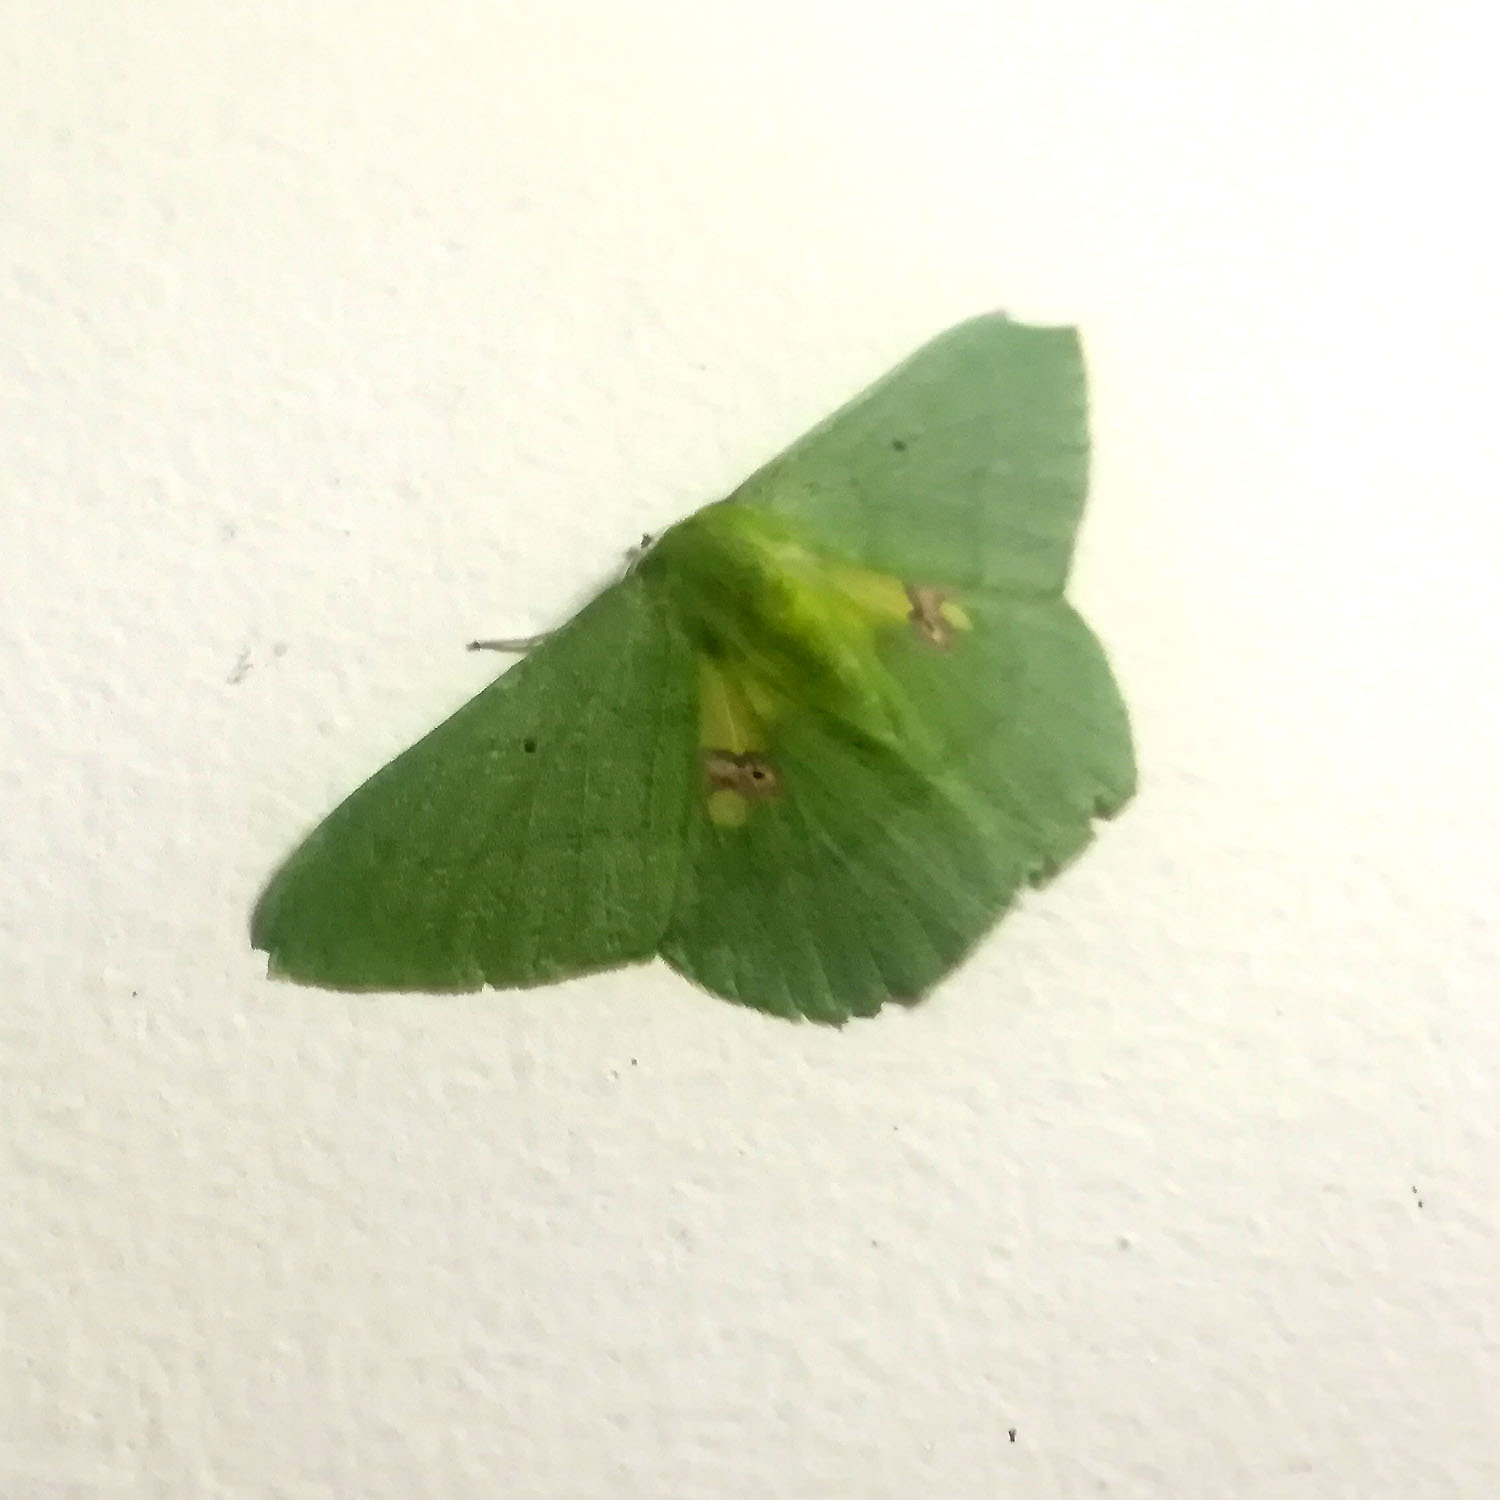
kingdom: Animalia
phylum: Arthropoda
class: Insecta
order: Lepidoptera
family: Geometridae
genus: Aporandria
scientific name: Aporandria specularia
